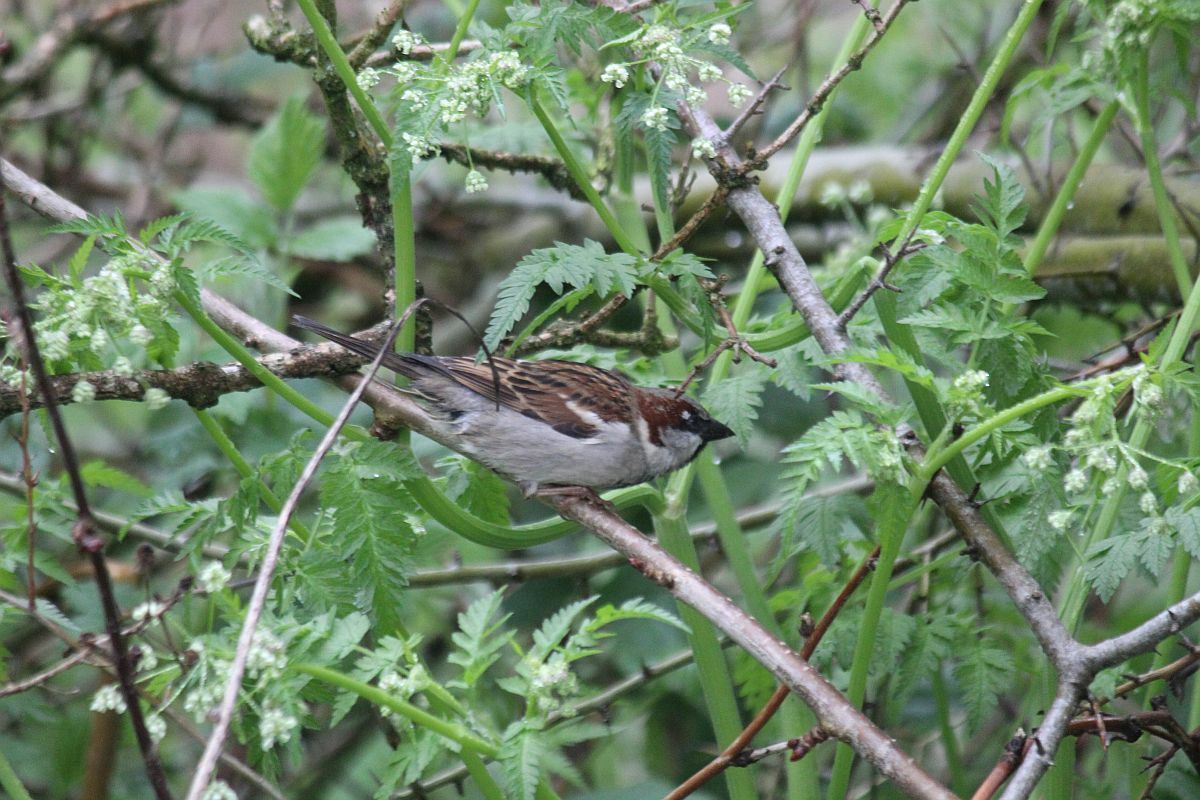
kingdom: Animalia
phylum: Chordata
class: Aves
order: Passeriformes
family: Passeridae
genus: Passer
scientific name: Passer domesticus
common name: House sparrow
